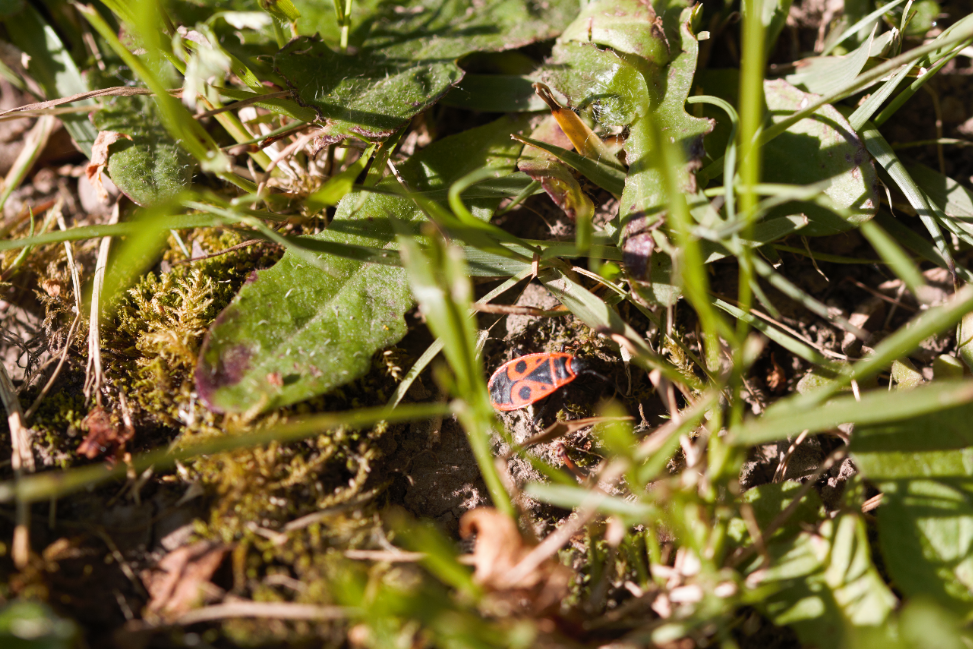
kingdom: Animalia
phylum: Arthropoda
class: Insecta
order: Hemiptera
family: Pyrrhocoridae
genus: Pyrrhocoris
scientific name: Pyrrhocoris apterus
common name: Firebug
